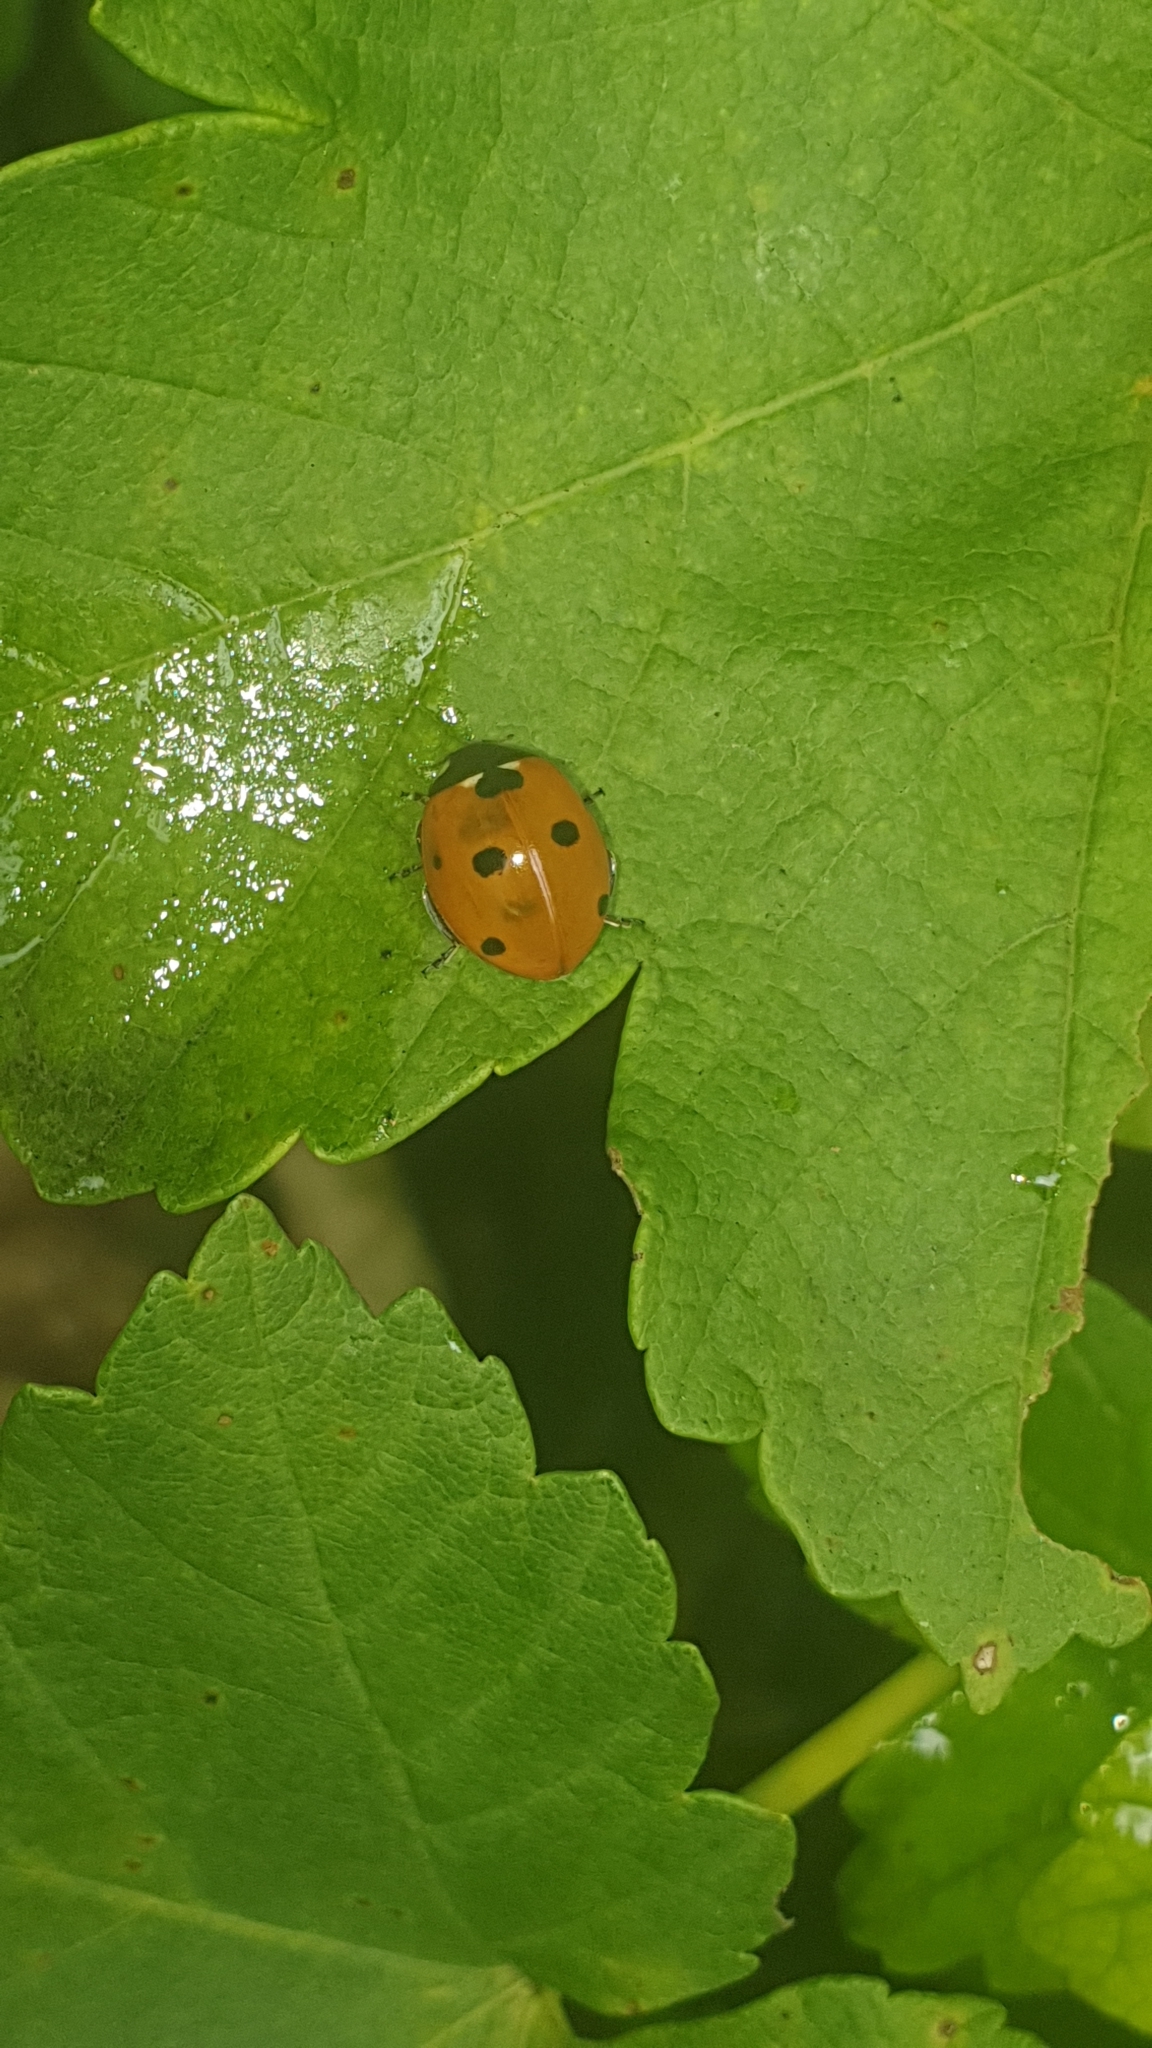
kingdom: Animalia
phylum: Arthropoda
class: Insecta
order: Coleoptera
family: Coccinellidae
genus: Coccinella
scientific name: Coccinella septempunctata
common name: Sevenspotted lady beetle
